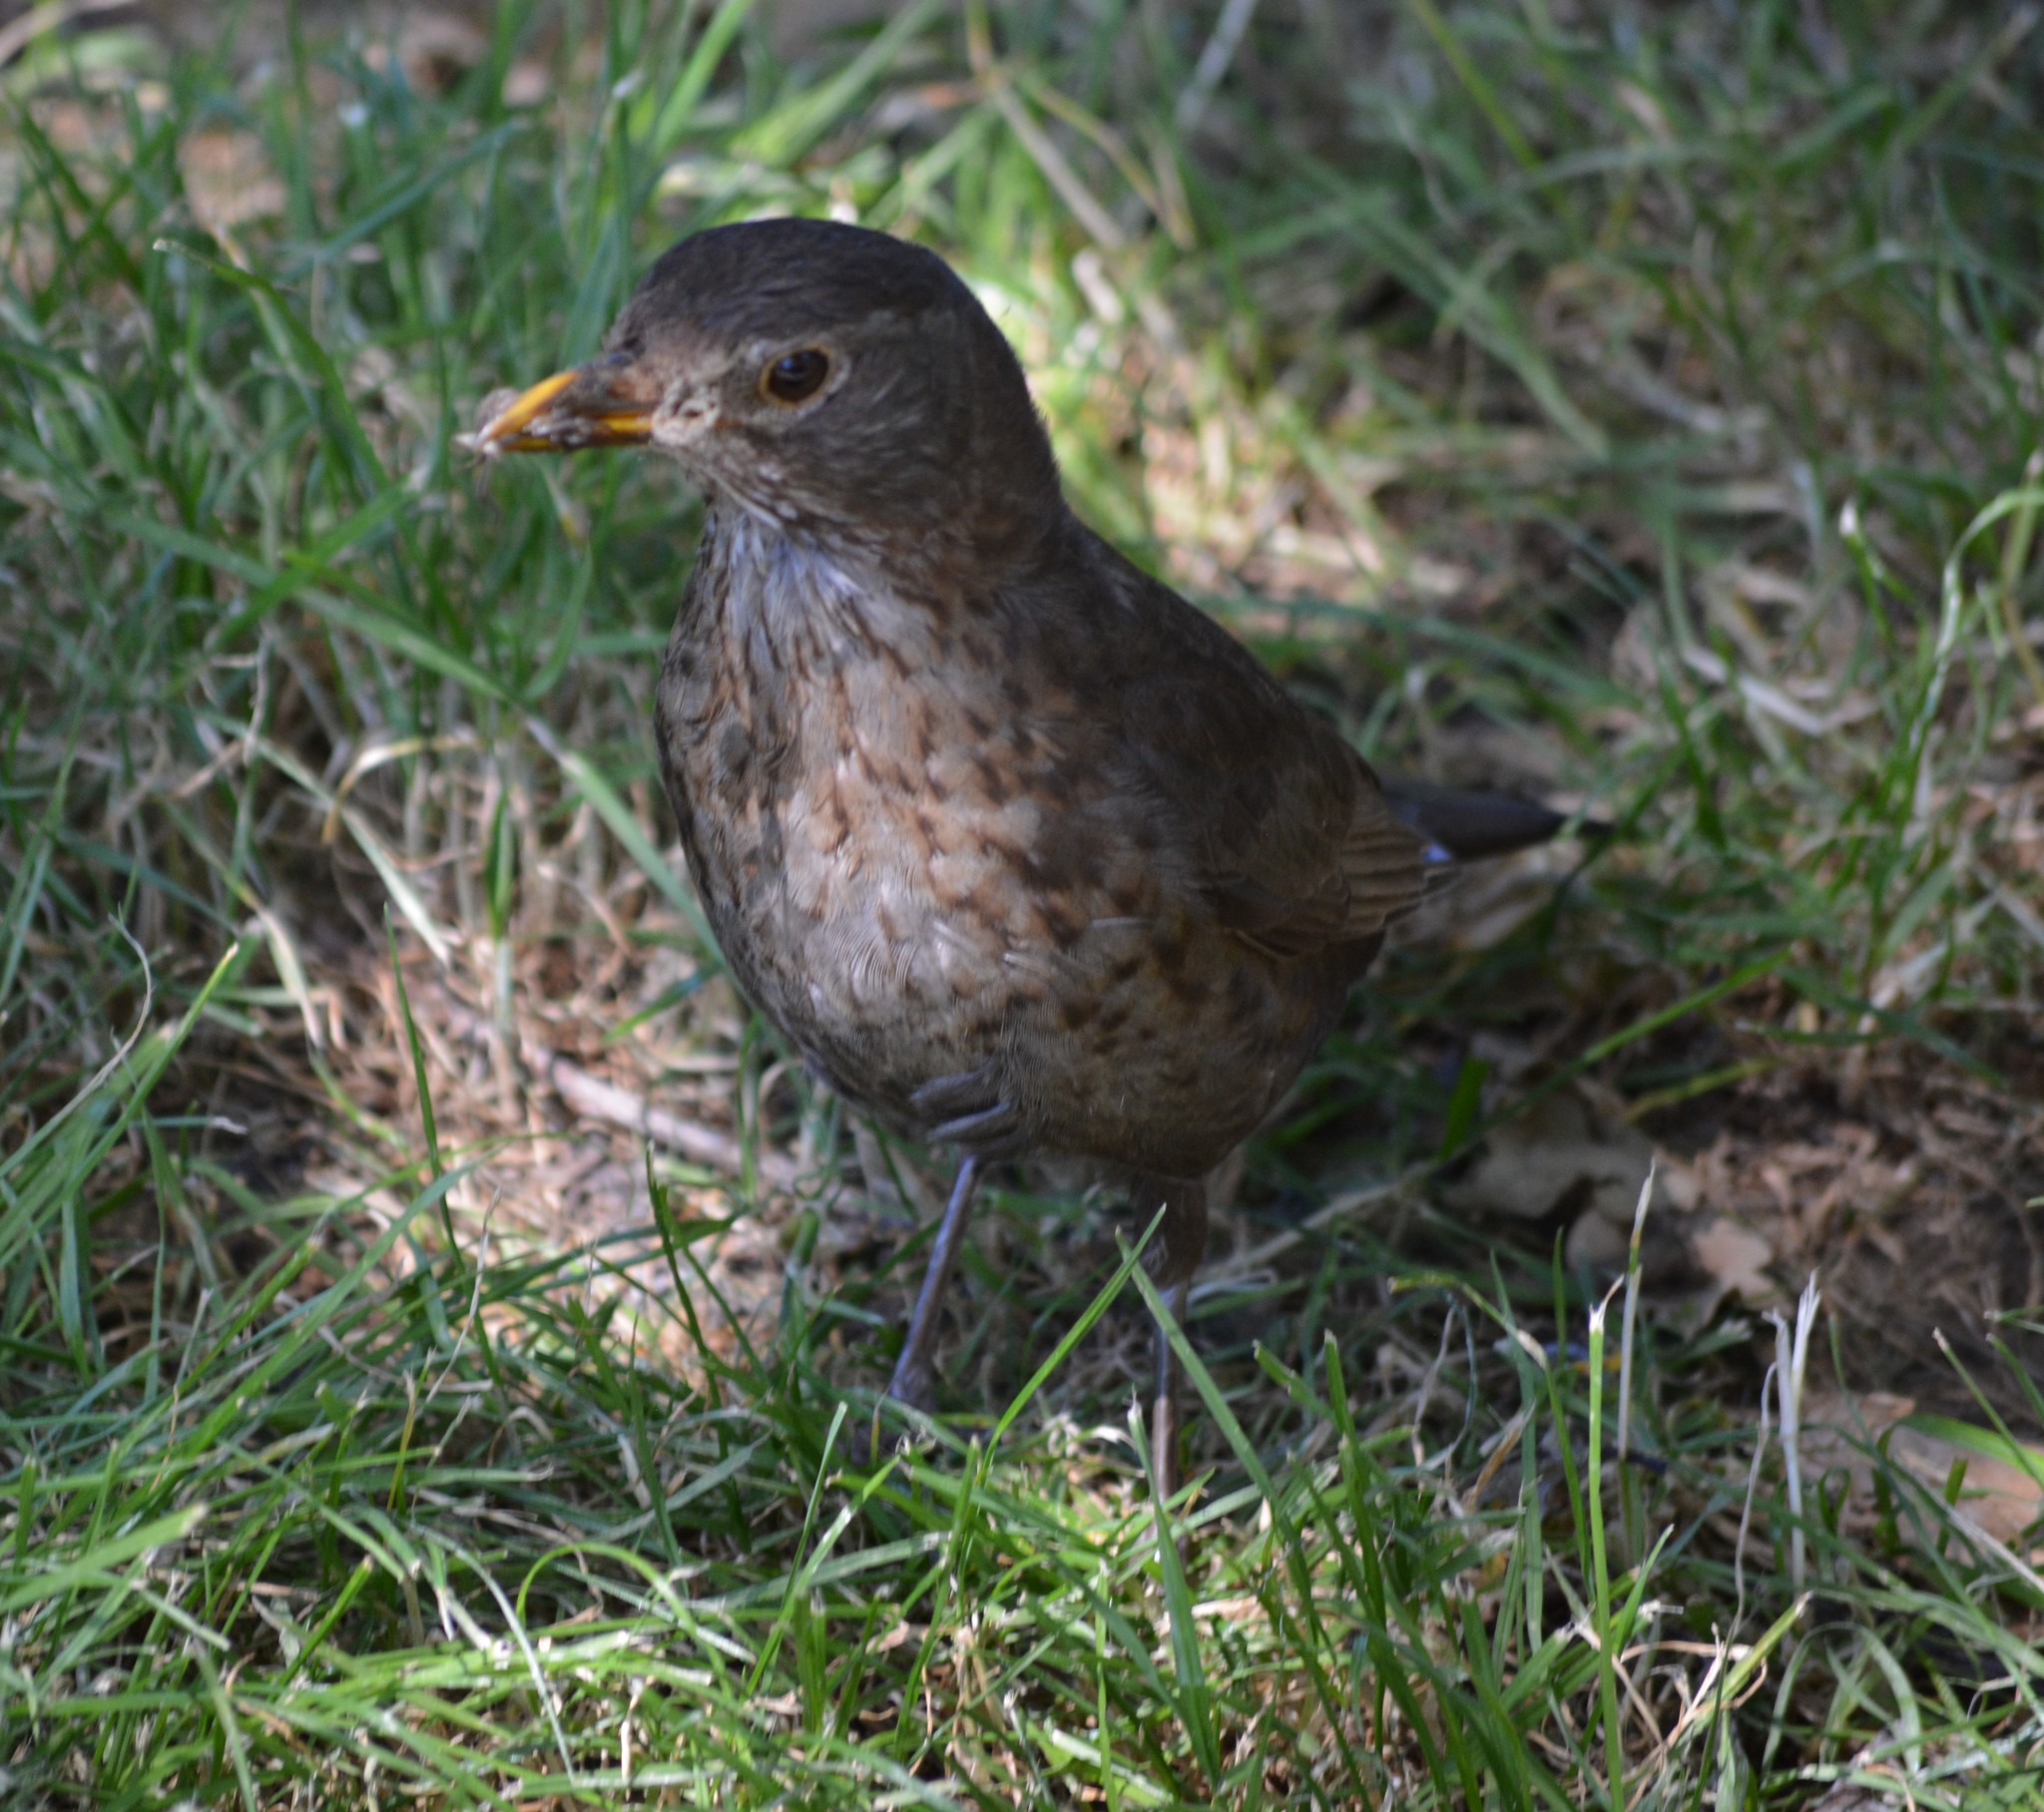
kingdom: Animalia
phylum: Chordata
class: Aves
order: Passeriformes
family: Turdidae
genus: Turdus
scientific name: Turdus merula
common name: Common blackbird
